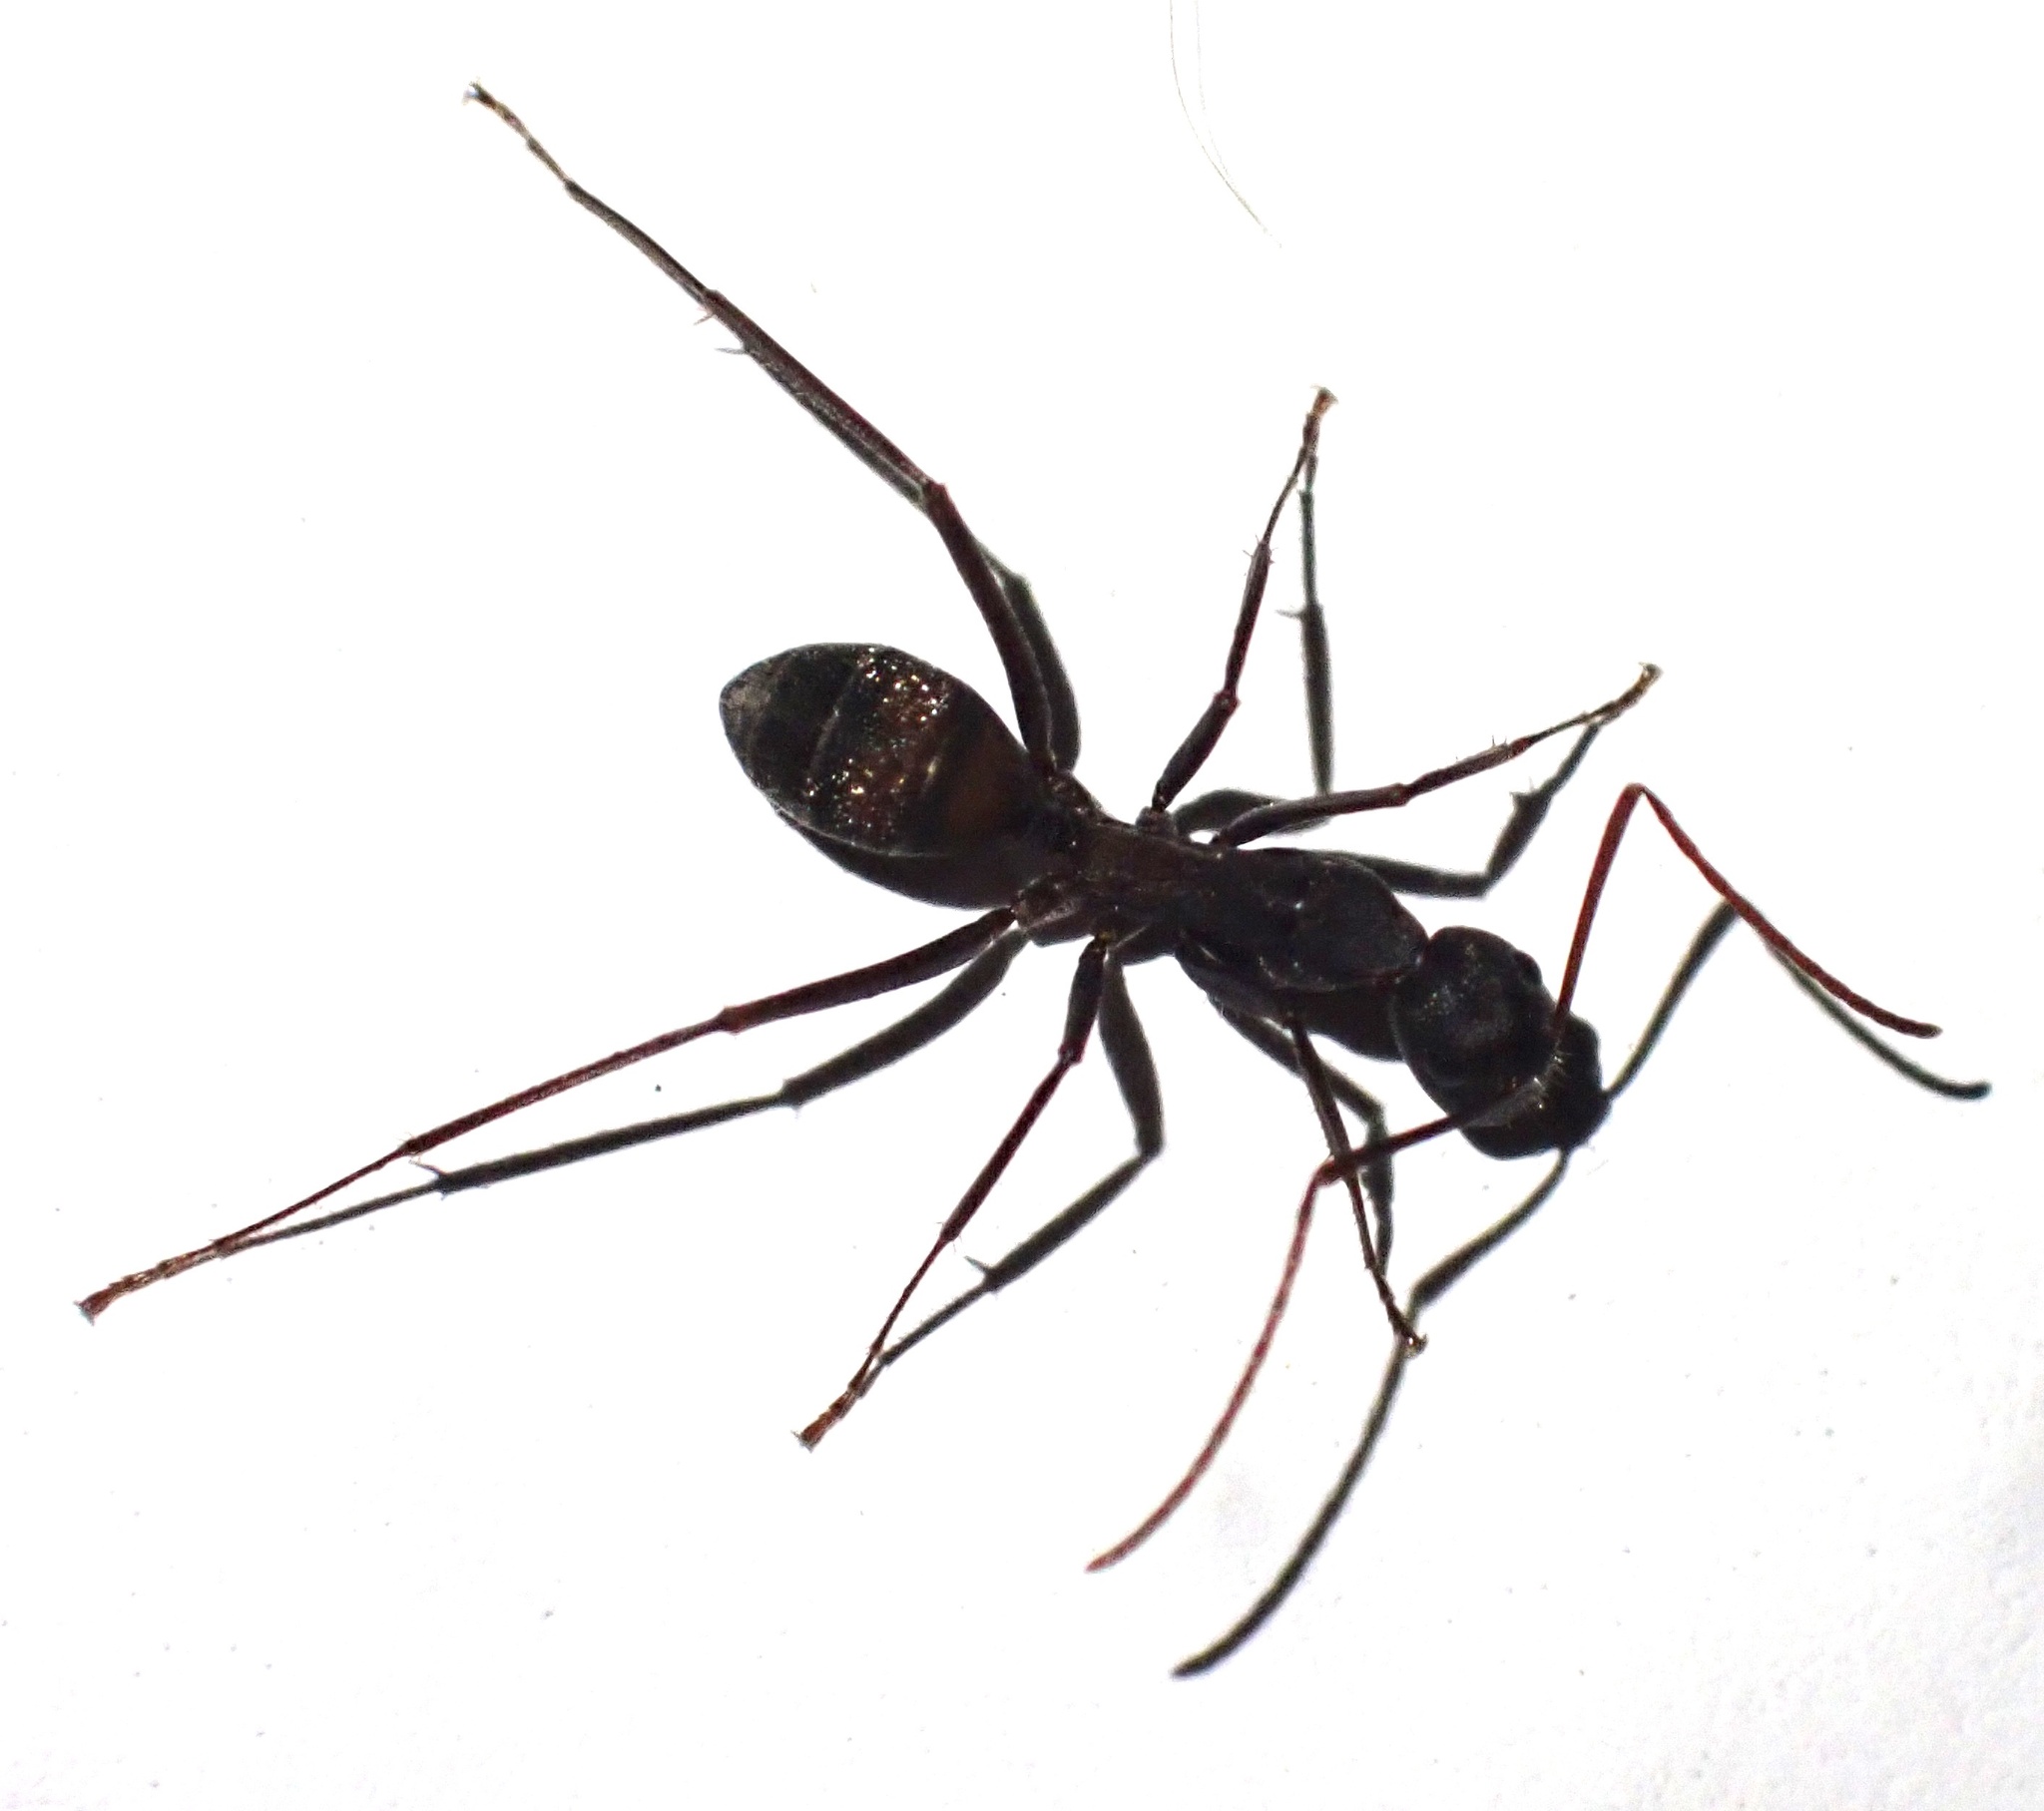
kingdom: Animalia
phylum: Arthropoda
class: Insecta
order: Hymenoptera
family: Formicidae
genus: Camponotus
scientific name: Camponotus cruentatus
